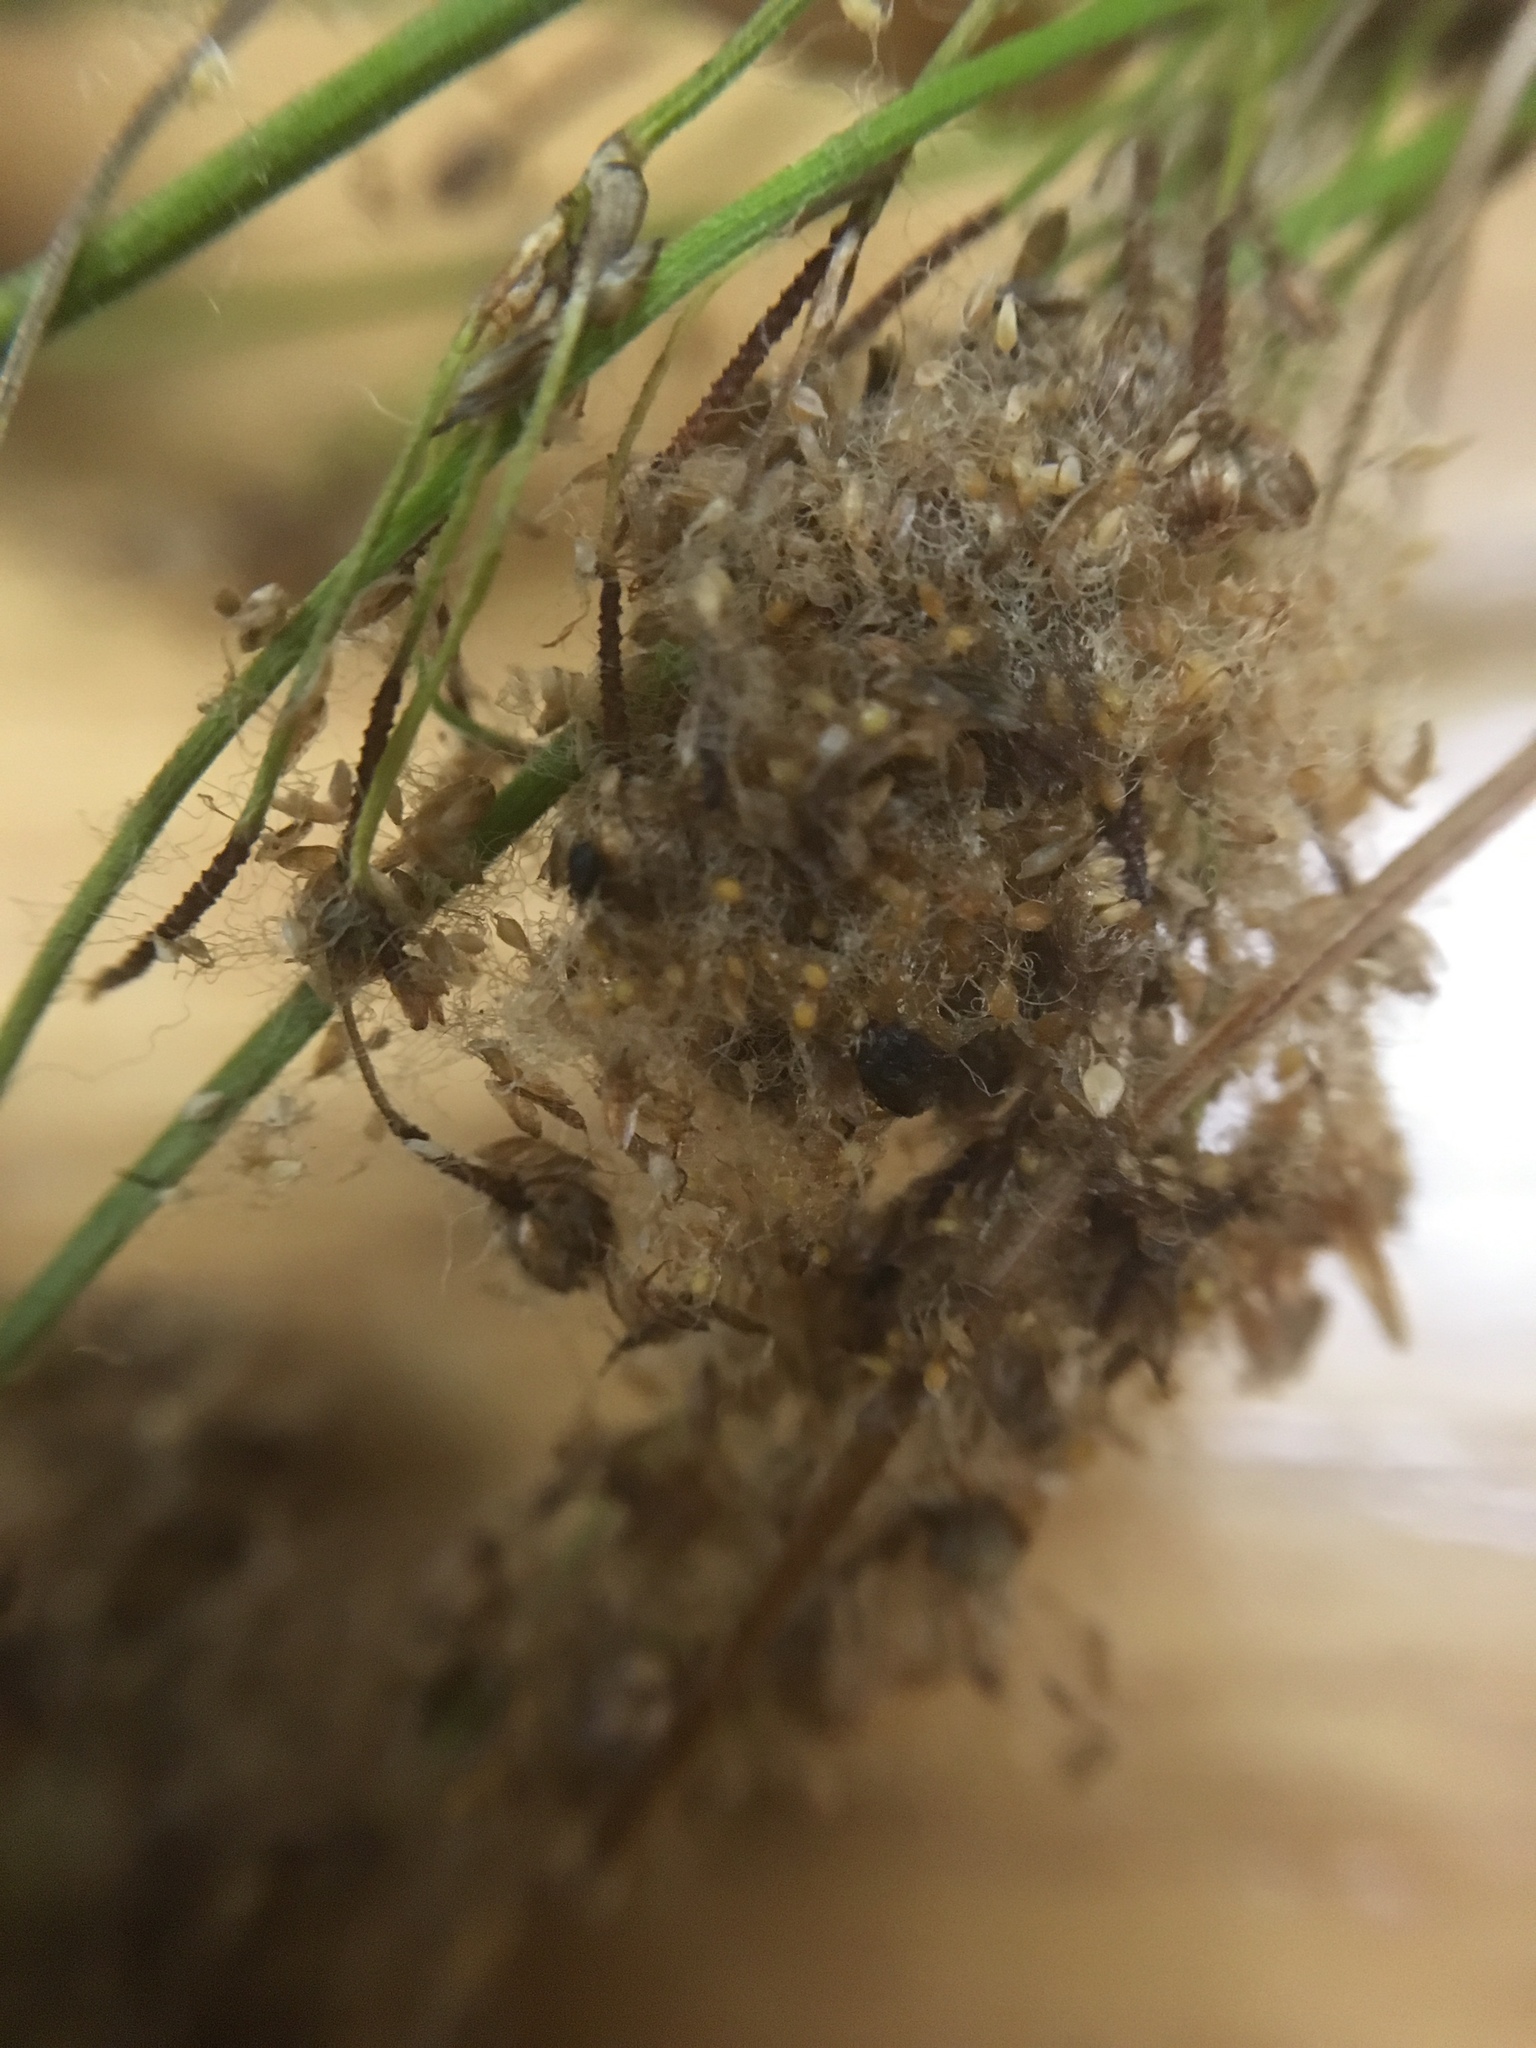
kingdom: Plantae
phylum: Tracheophyta
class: Liliopsida
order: Poales
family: Cyperaceae
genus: Scirpus
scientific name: Scirpus cyperinus
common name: Black-sheathed bulrush
